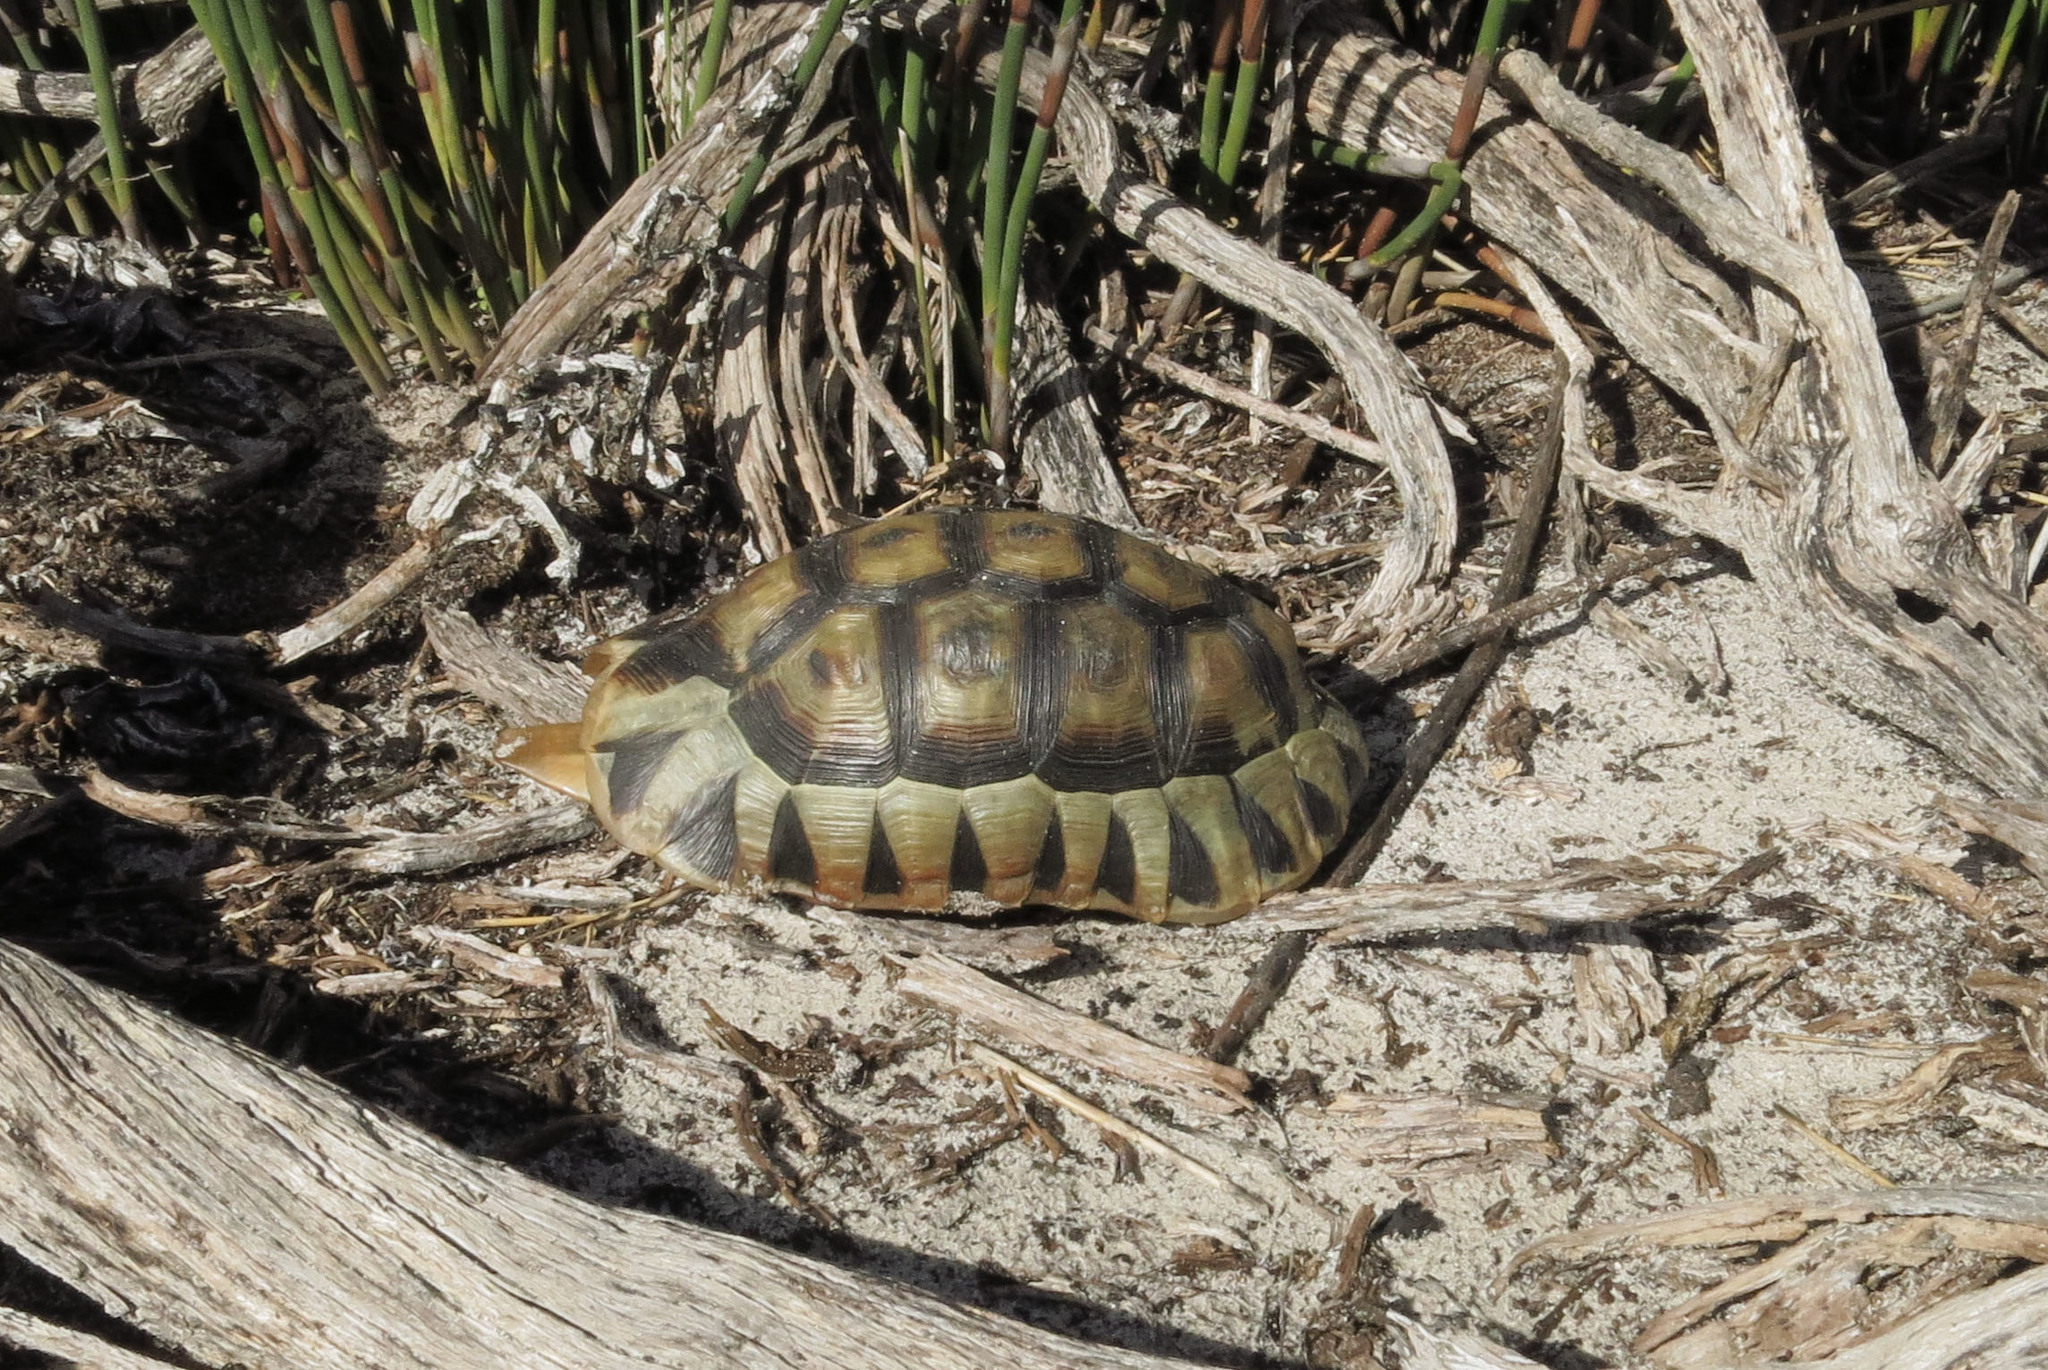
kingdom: Animalia
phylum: Chordata
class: Testudines
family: Testudinidae
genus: Chersina
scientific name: Chersina angulata
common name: South african bowsprit tortoise
